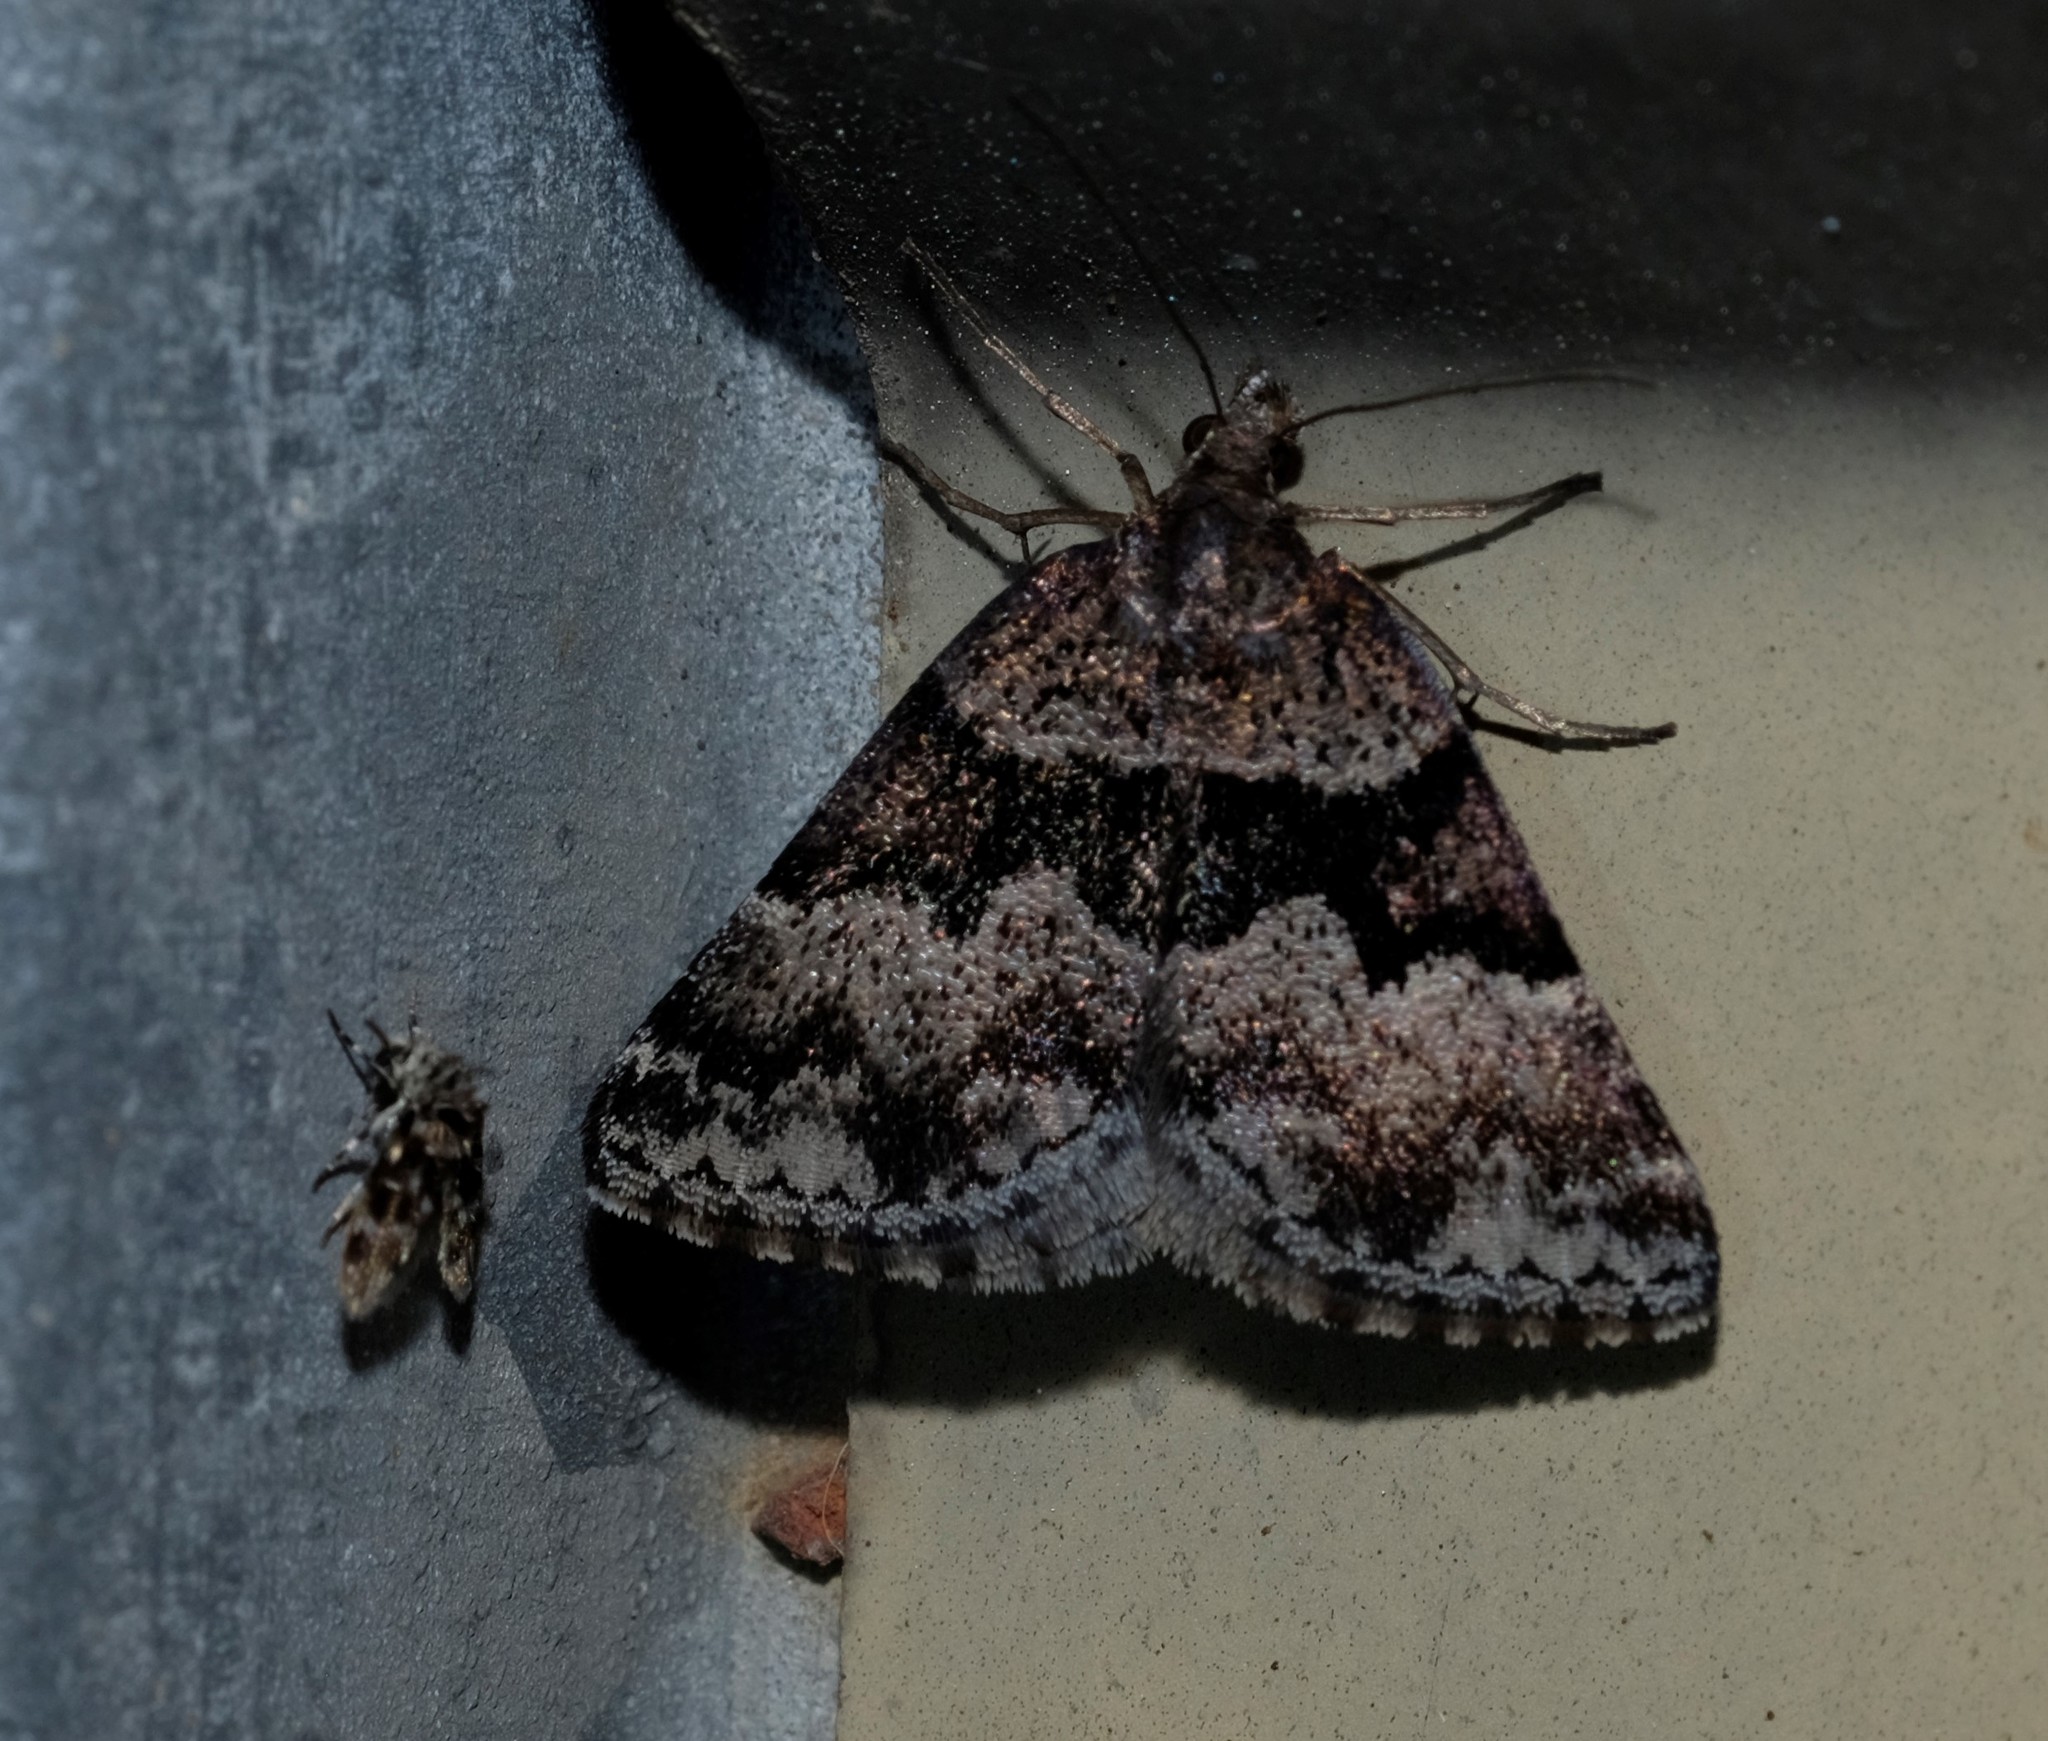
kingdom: Animalia
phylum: Arthropoda
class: Insecta
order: Lepidoptera
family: Geometridae
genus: Dichromodes
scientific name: Dichromodes ainaria
